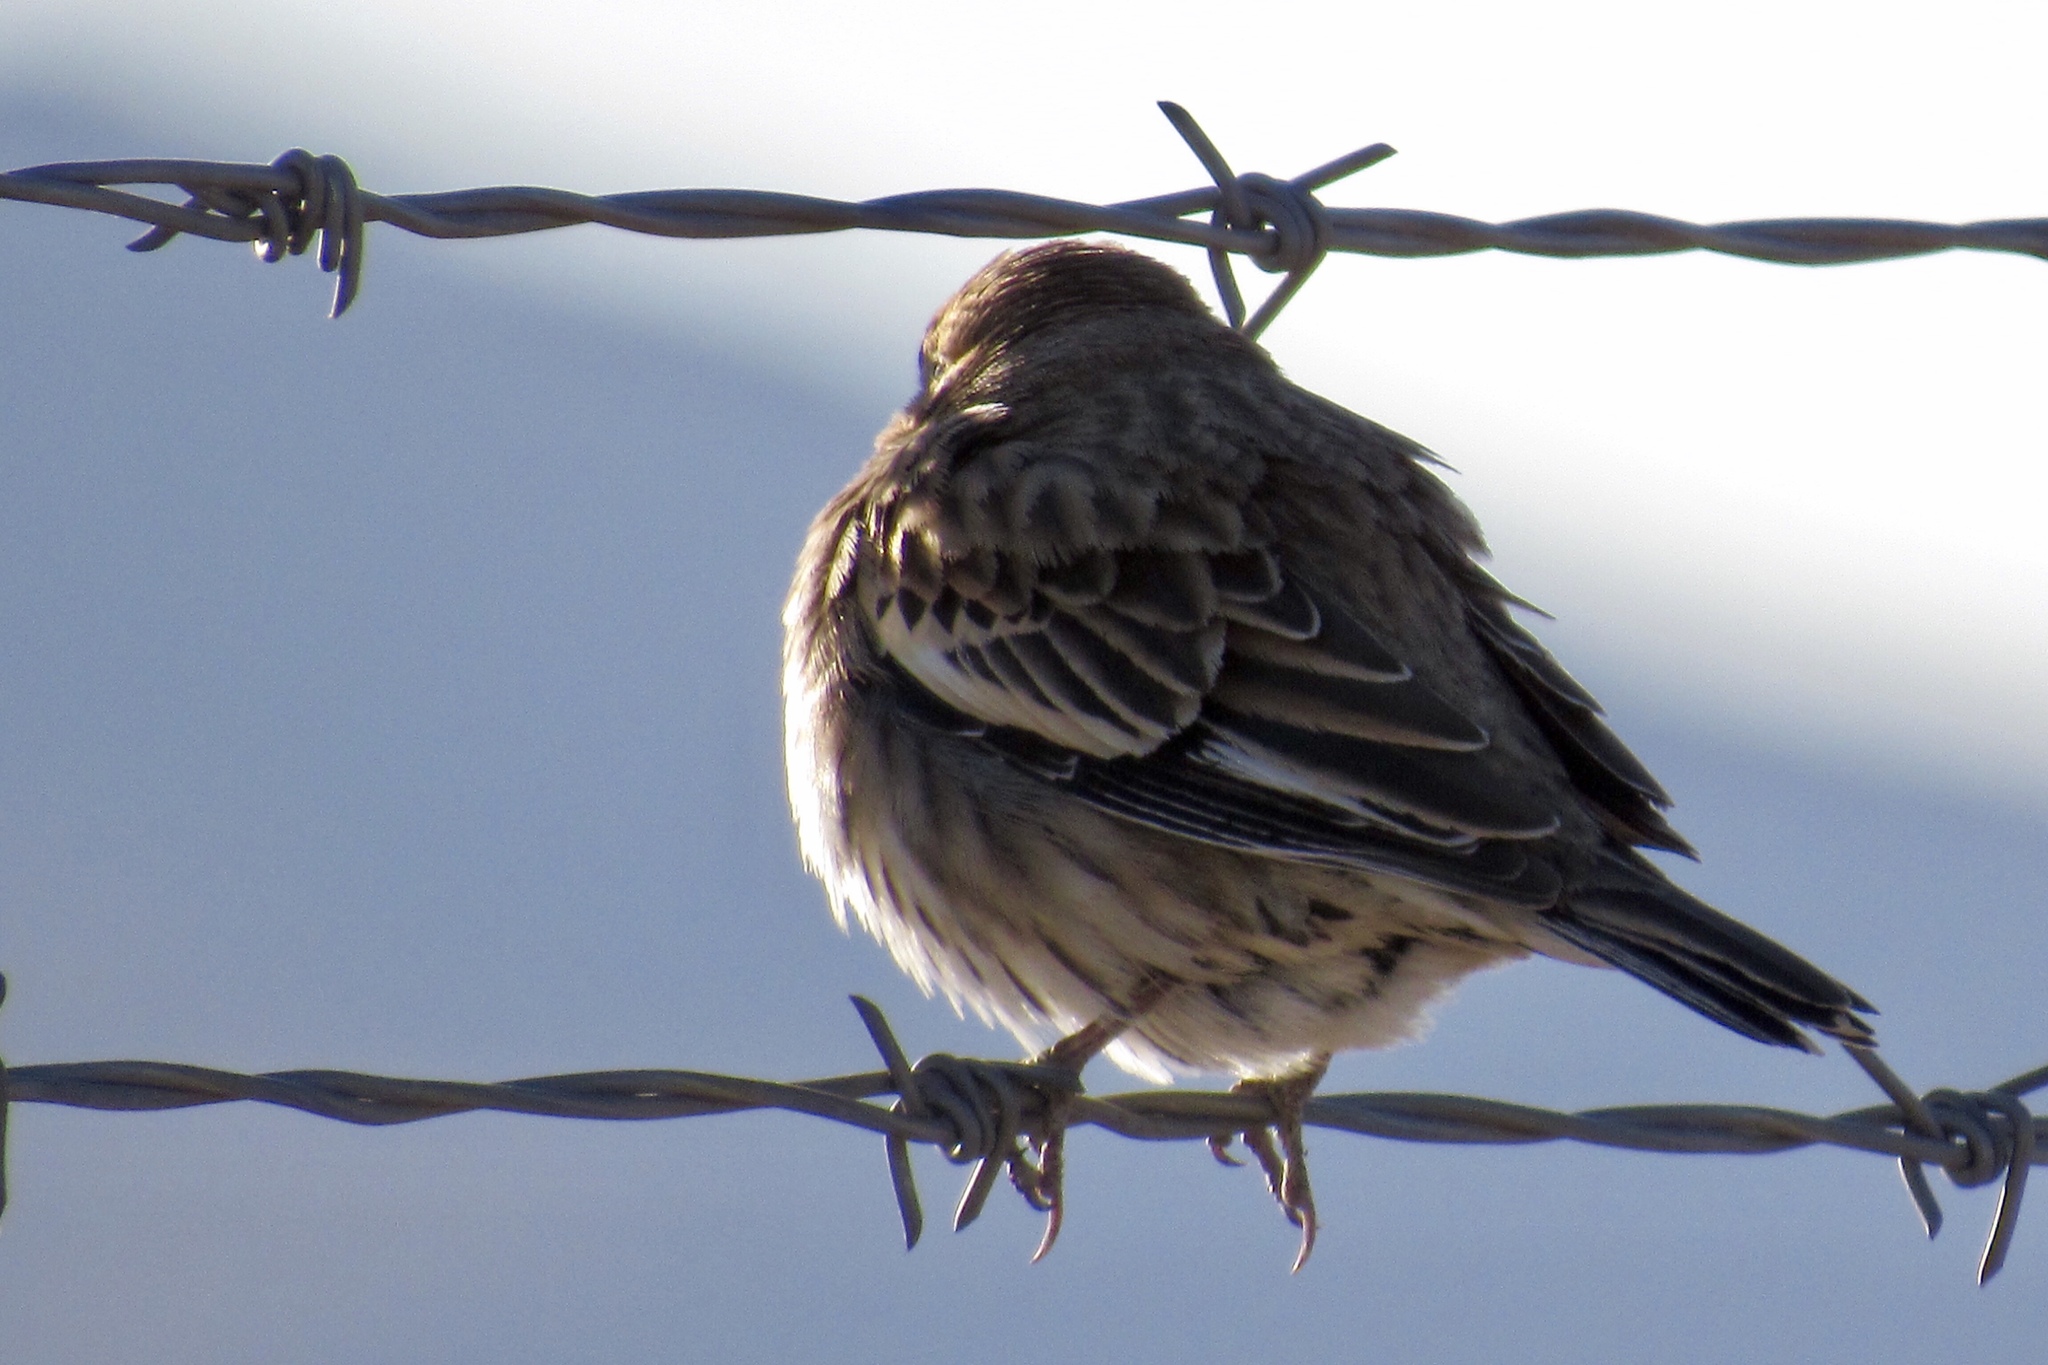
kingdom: Animalia
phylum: Chordata
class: Aves
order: Passeriformes
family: Passerellidae
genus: Calamospiza
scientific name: Calamospiza melanocorys
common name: Lark bunting
